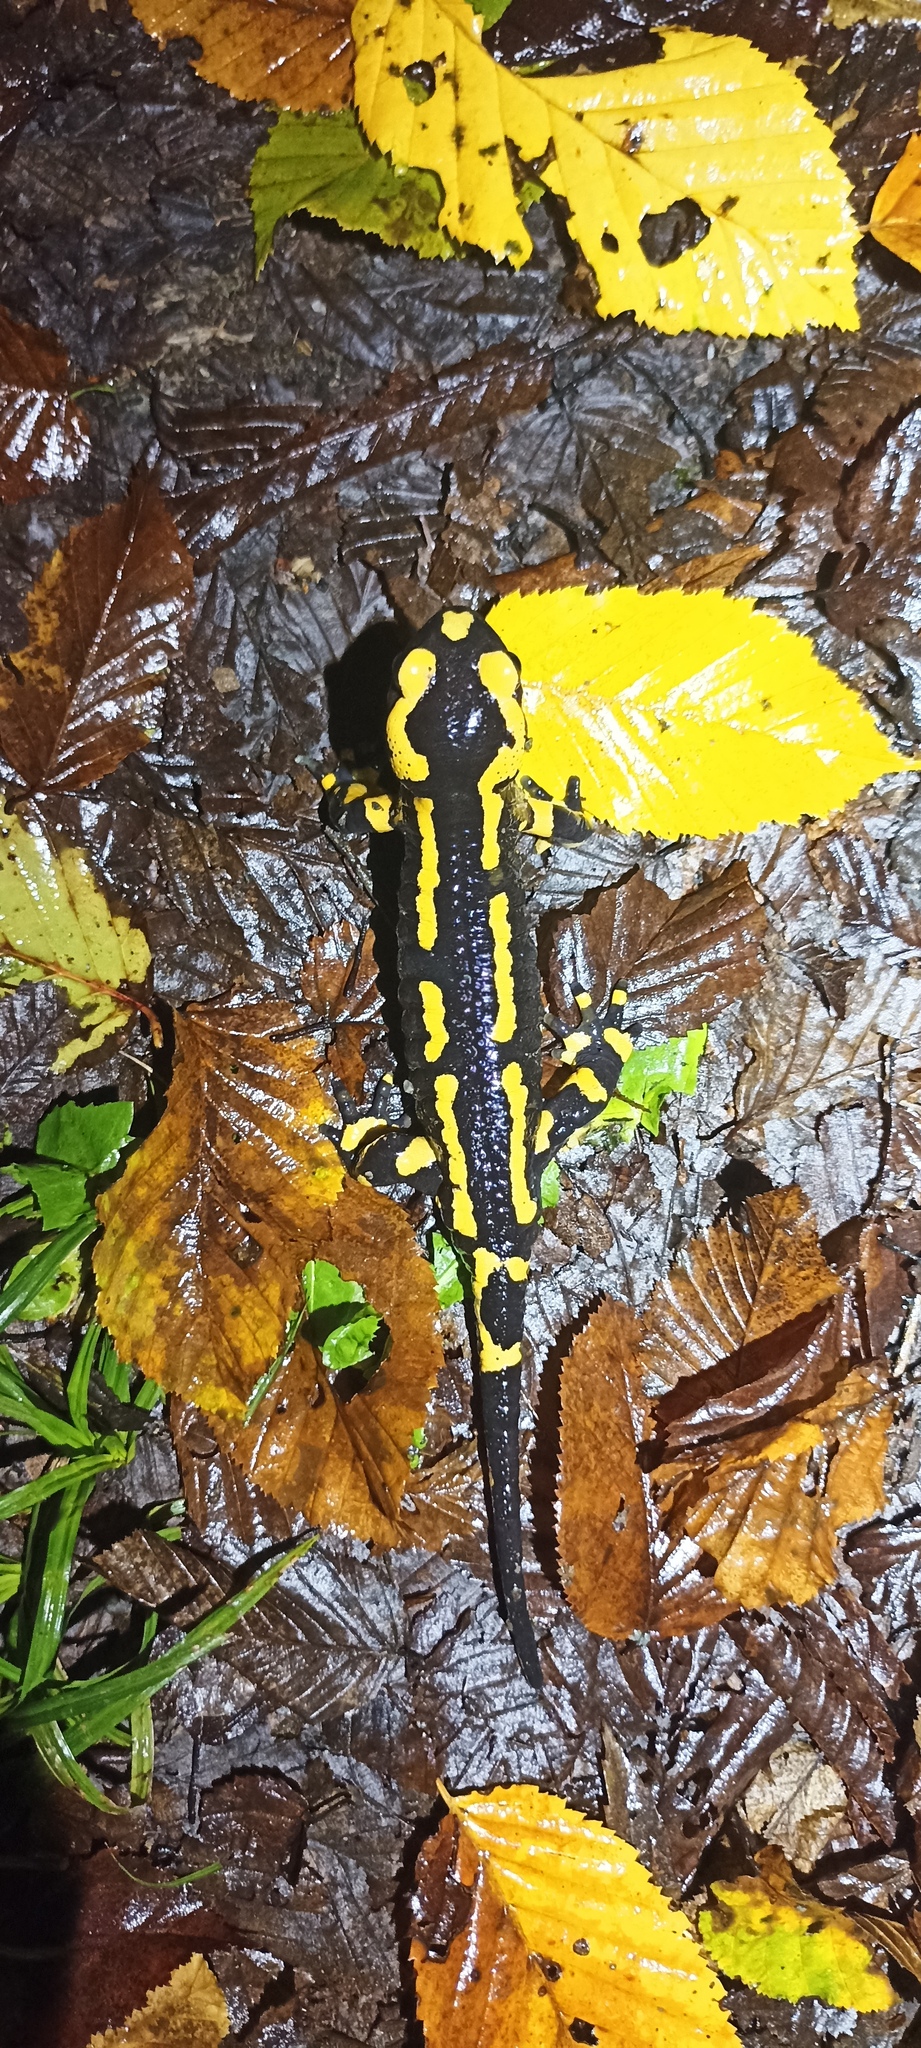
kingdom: Animalia
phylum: Chordata
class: Amphibia
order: Caudata
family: Salamandridae
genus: Salamandra
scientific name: Salamandra salamandra
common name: Fire salamander
